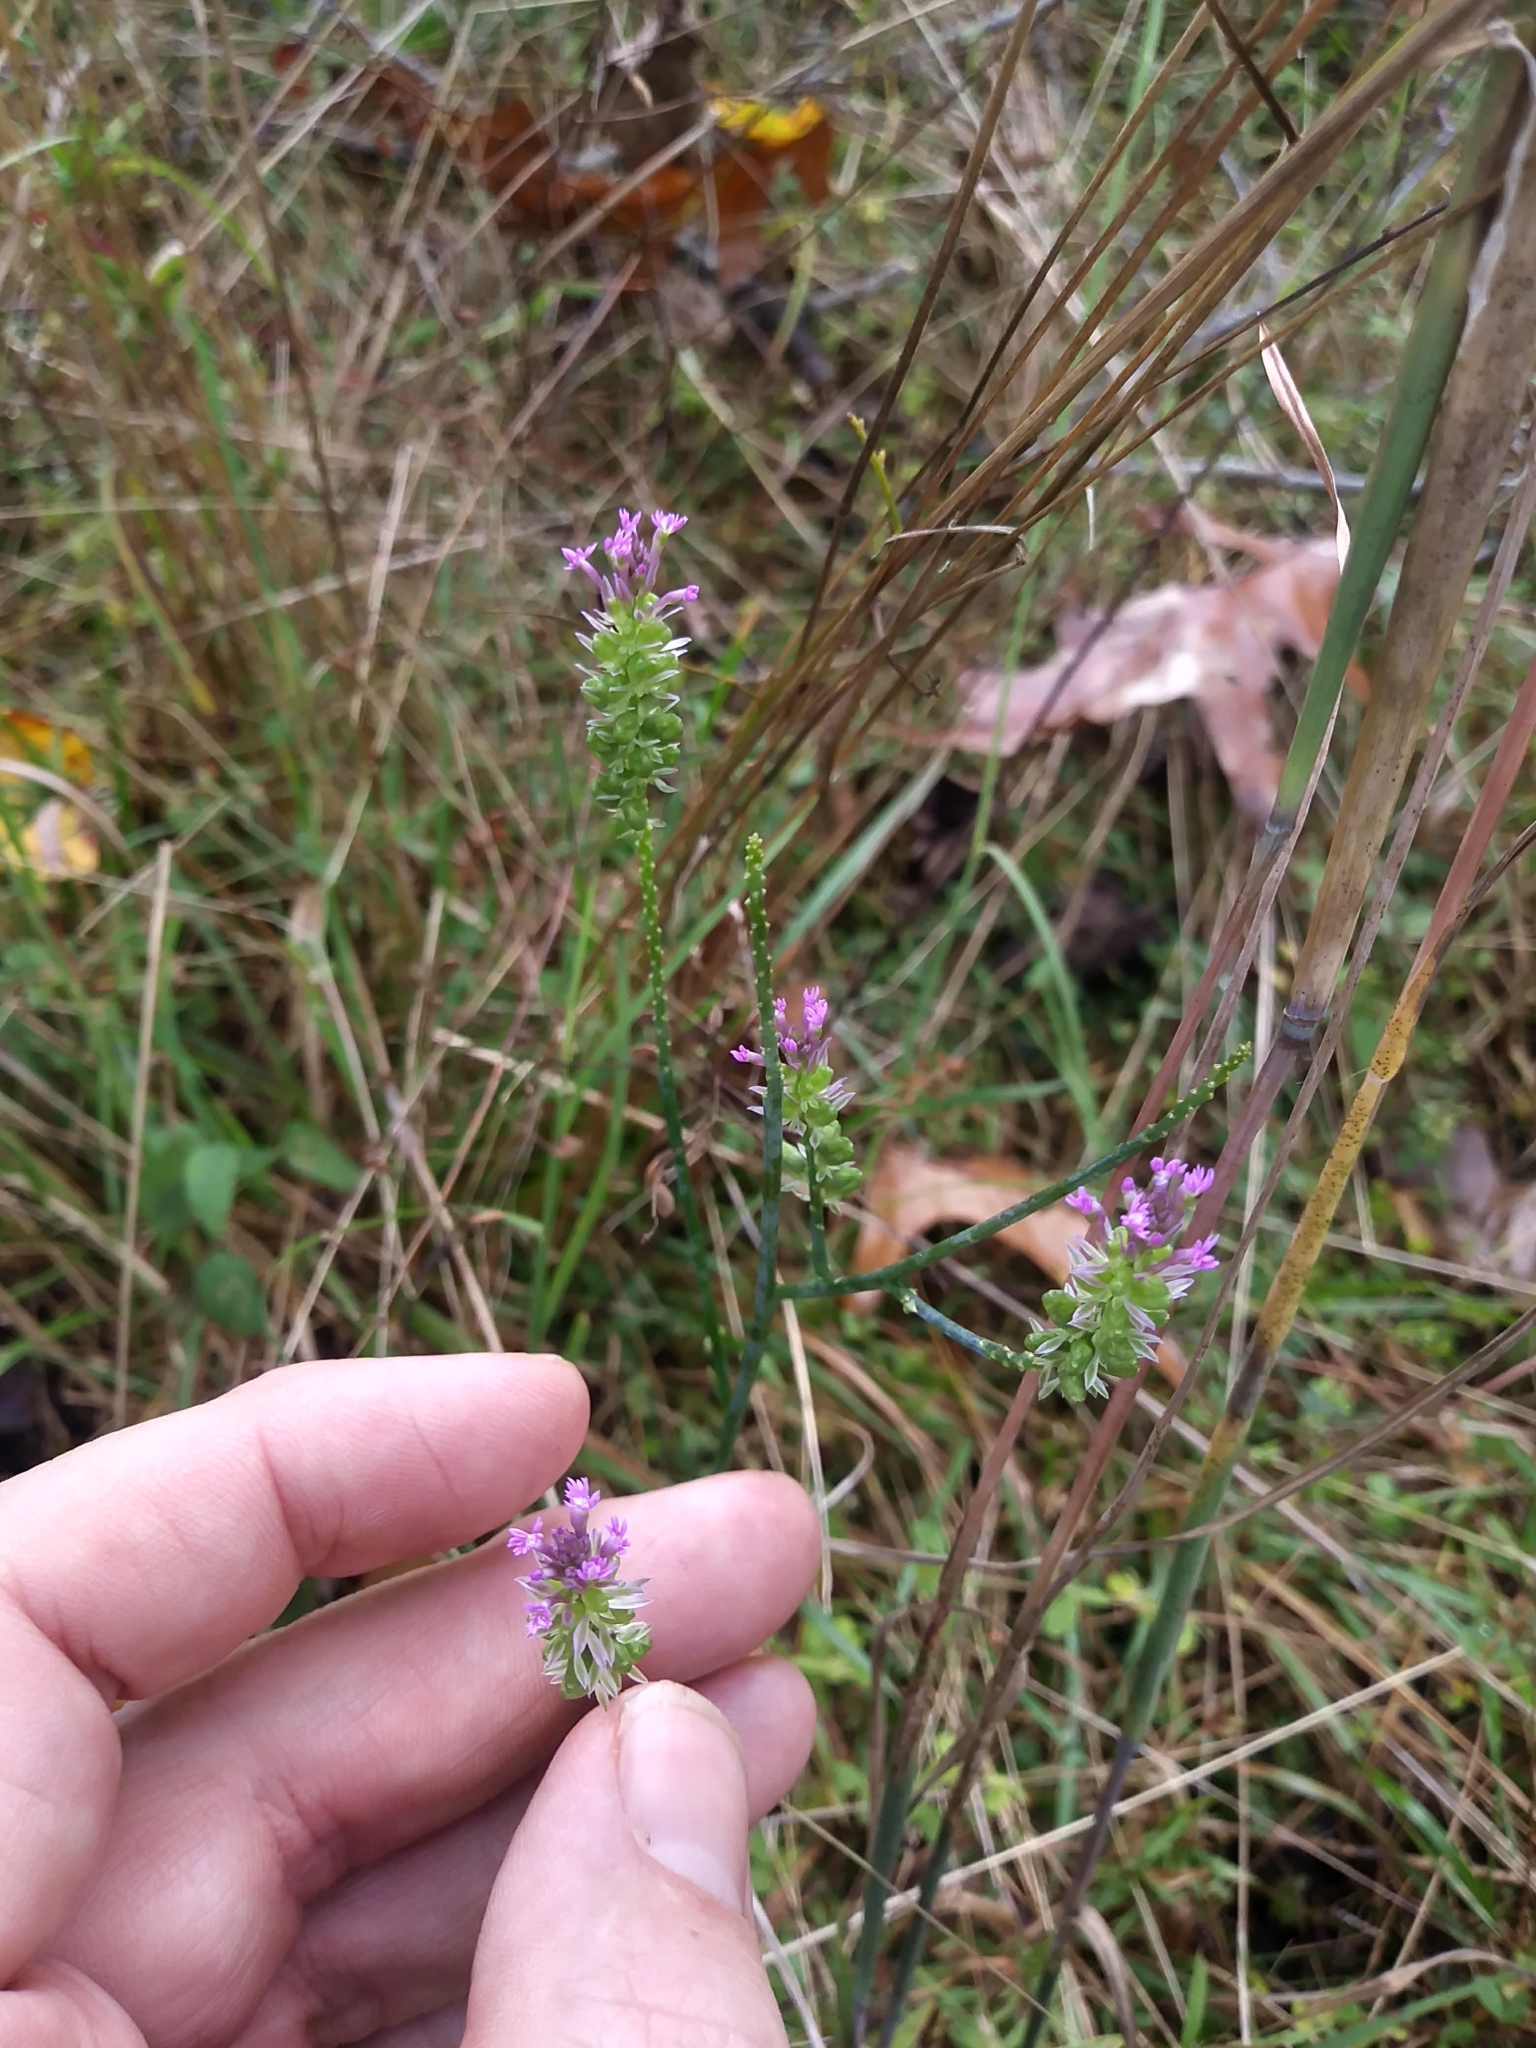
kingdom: Plantae
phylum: Tracheophyta
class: Magnoliopsida
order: Fabales
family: Polygalaceae
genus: Polygala
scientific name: Polygala incarnata
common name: Pink milkwort
